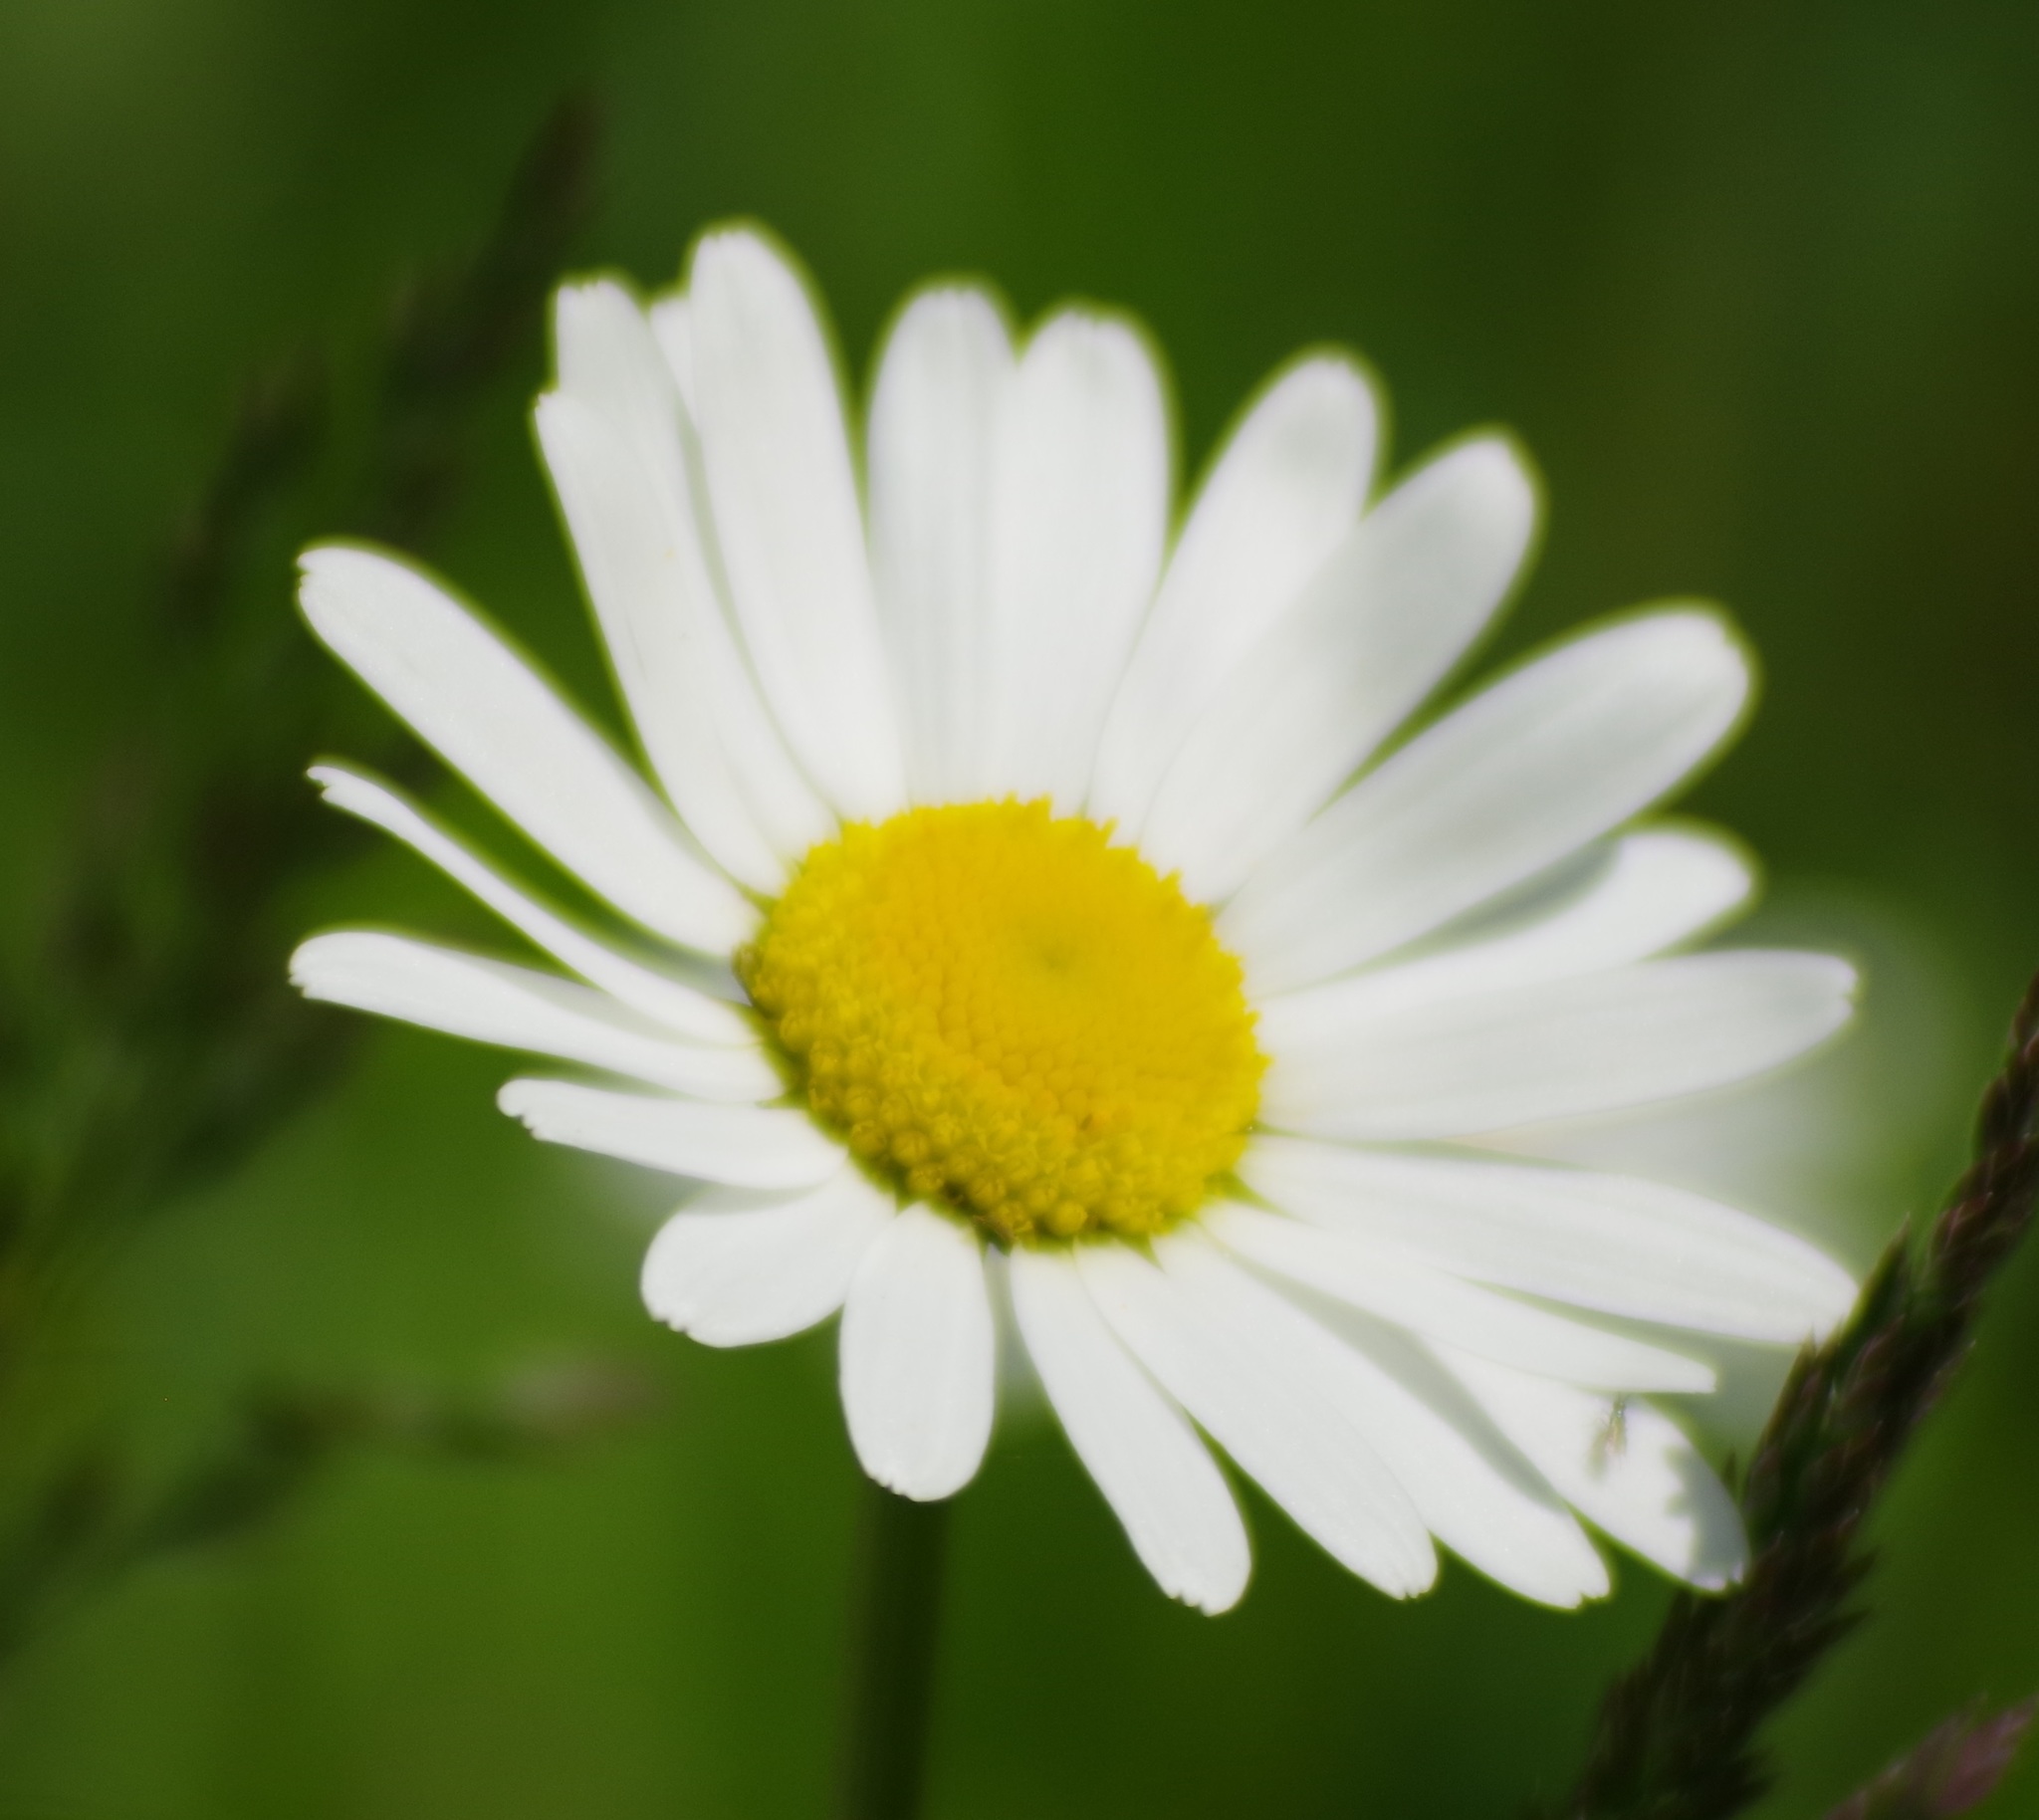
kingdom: Plantae
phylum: Tracheophyta
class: Magnoliopsida
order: Asterales
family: Asteraceae
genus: Leucanthemum
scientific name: Leucanthemum vulgare
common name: Oxeye daisy
